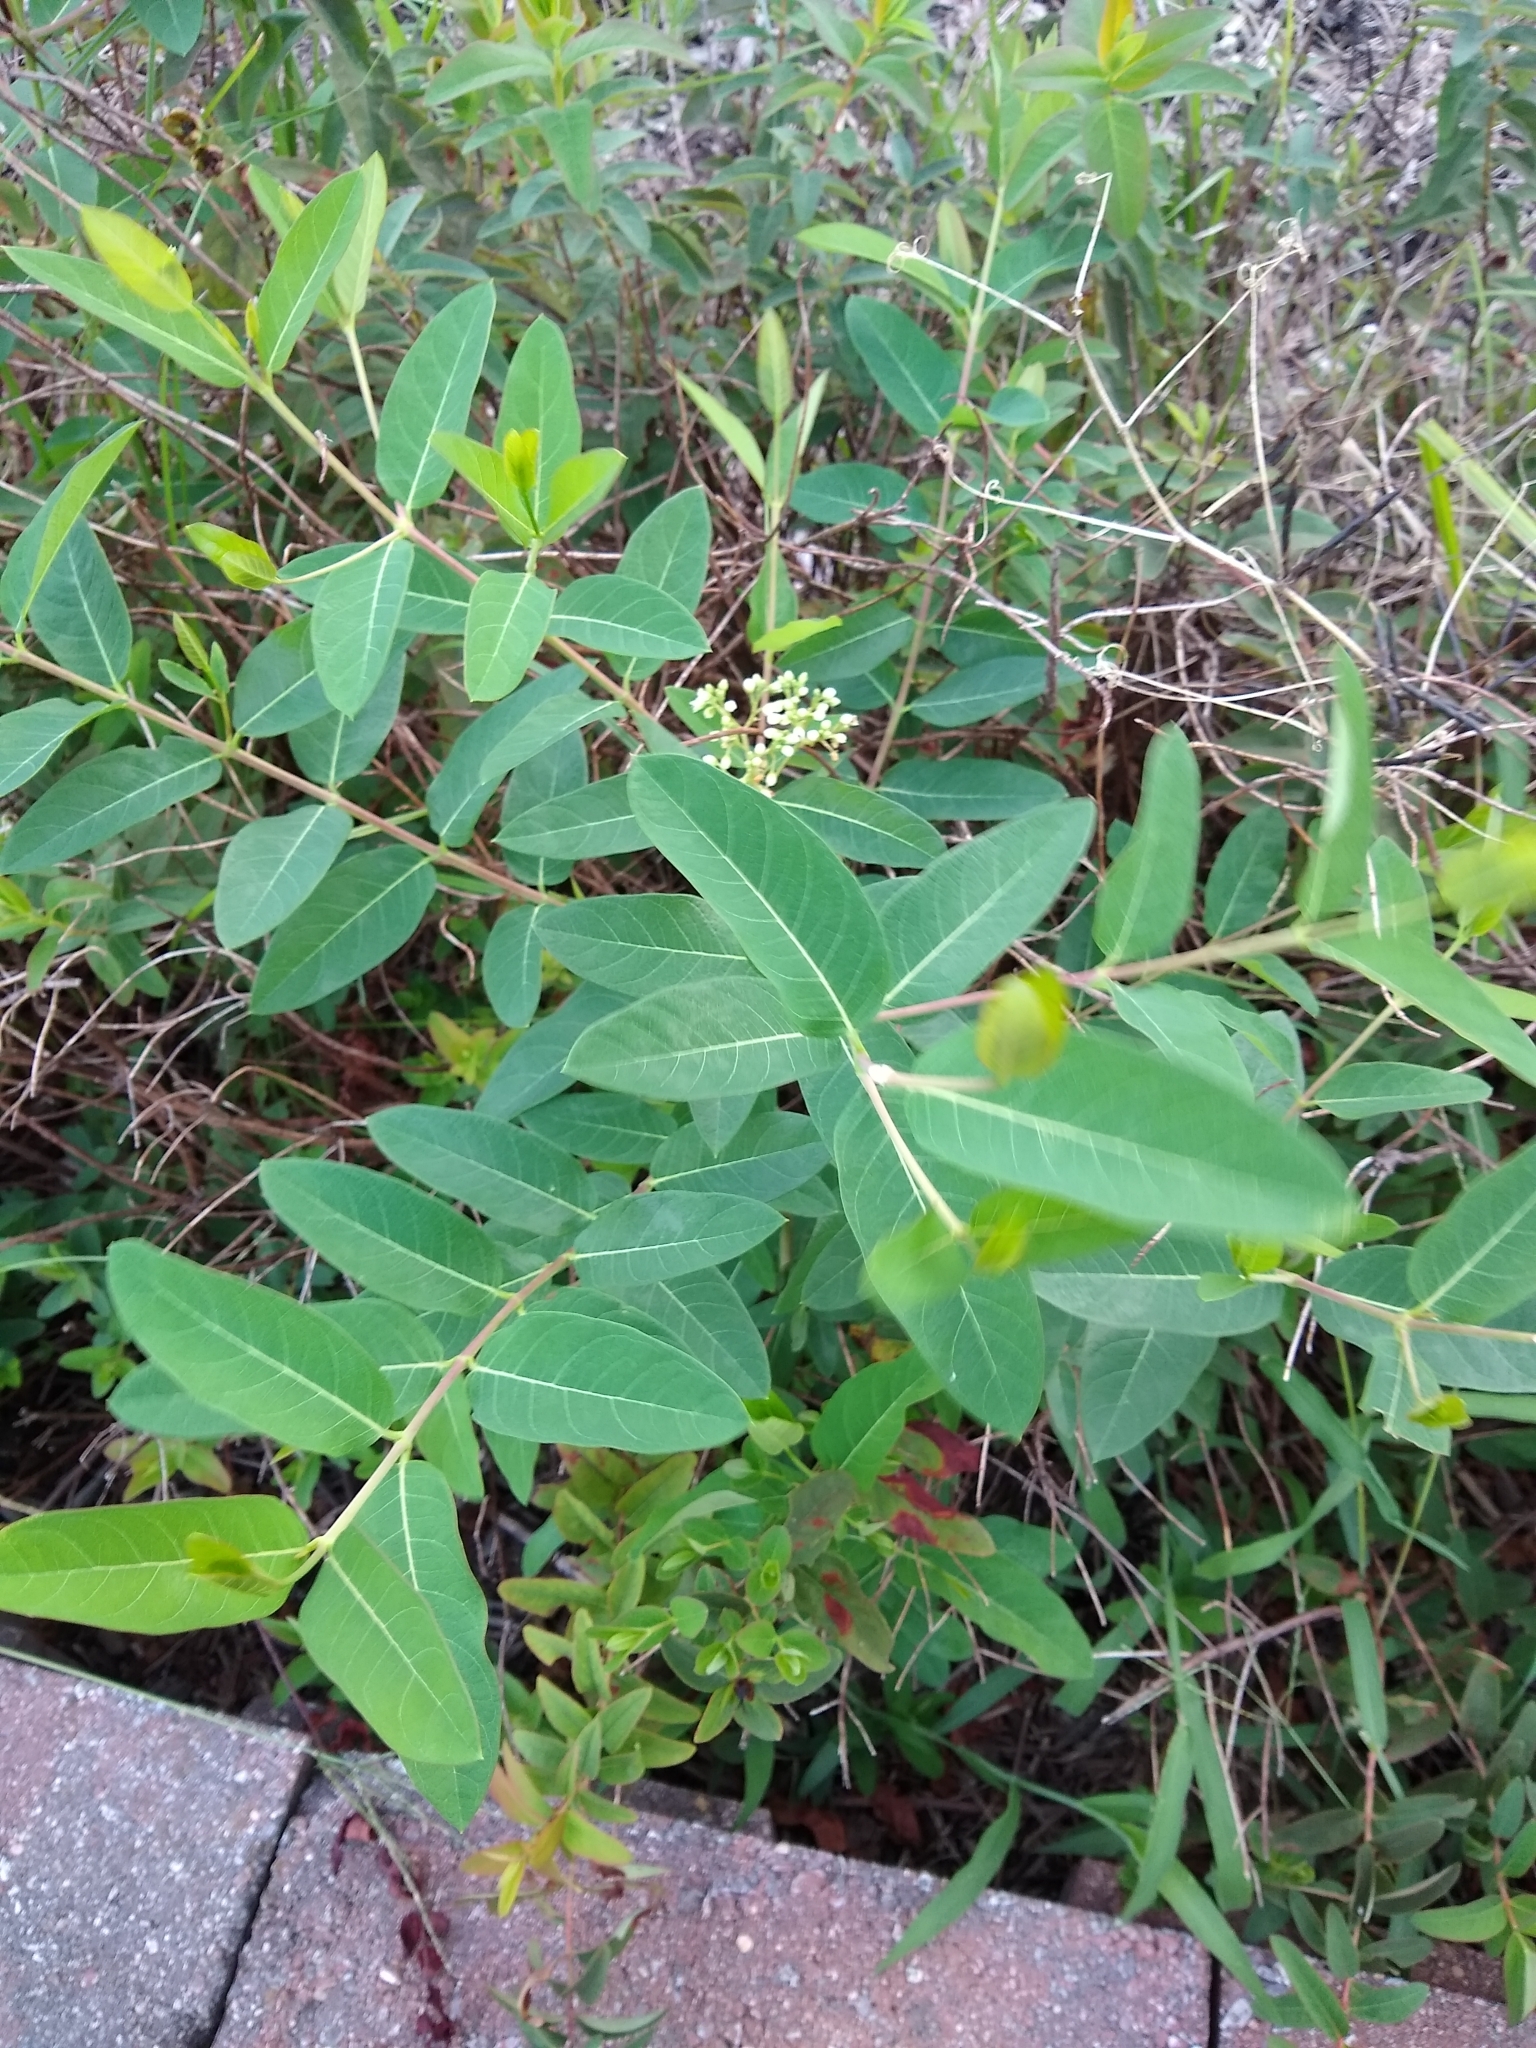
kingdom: Plantae
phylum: Tracheophyta
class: Magnoliopsida
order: Gentianales
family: Apocynaceae
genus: Apocynum
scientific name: Apocynum cannabinum
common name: Hemp dogbane
